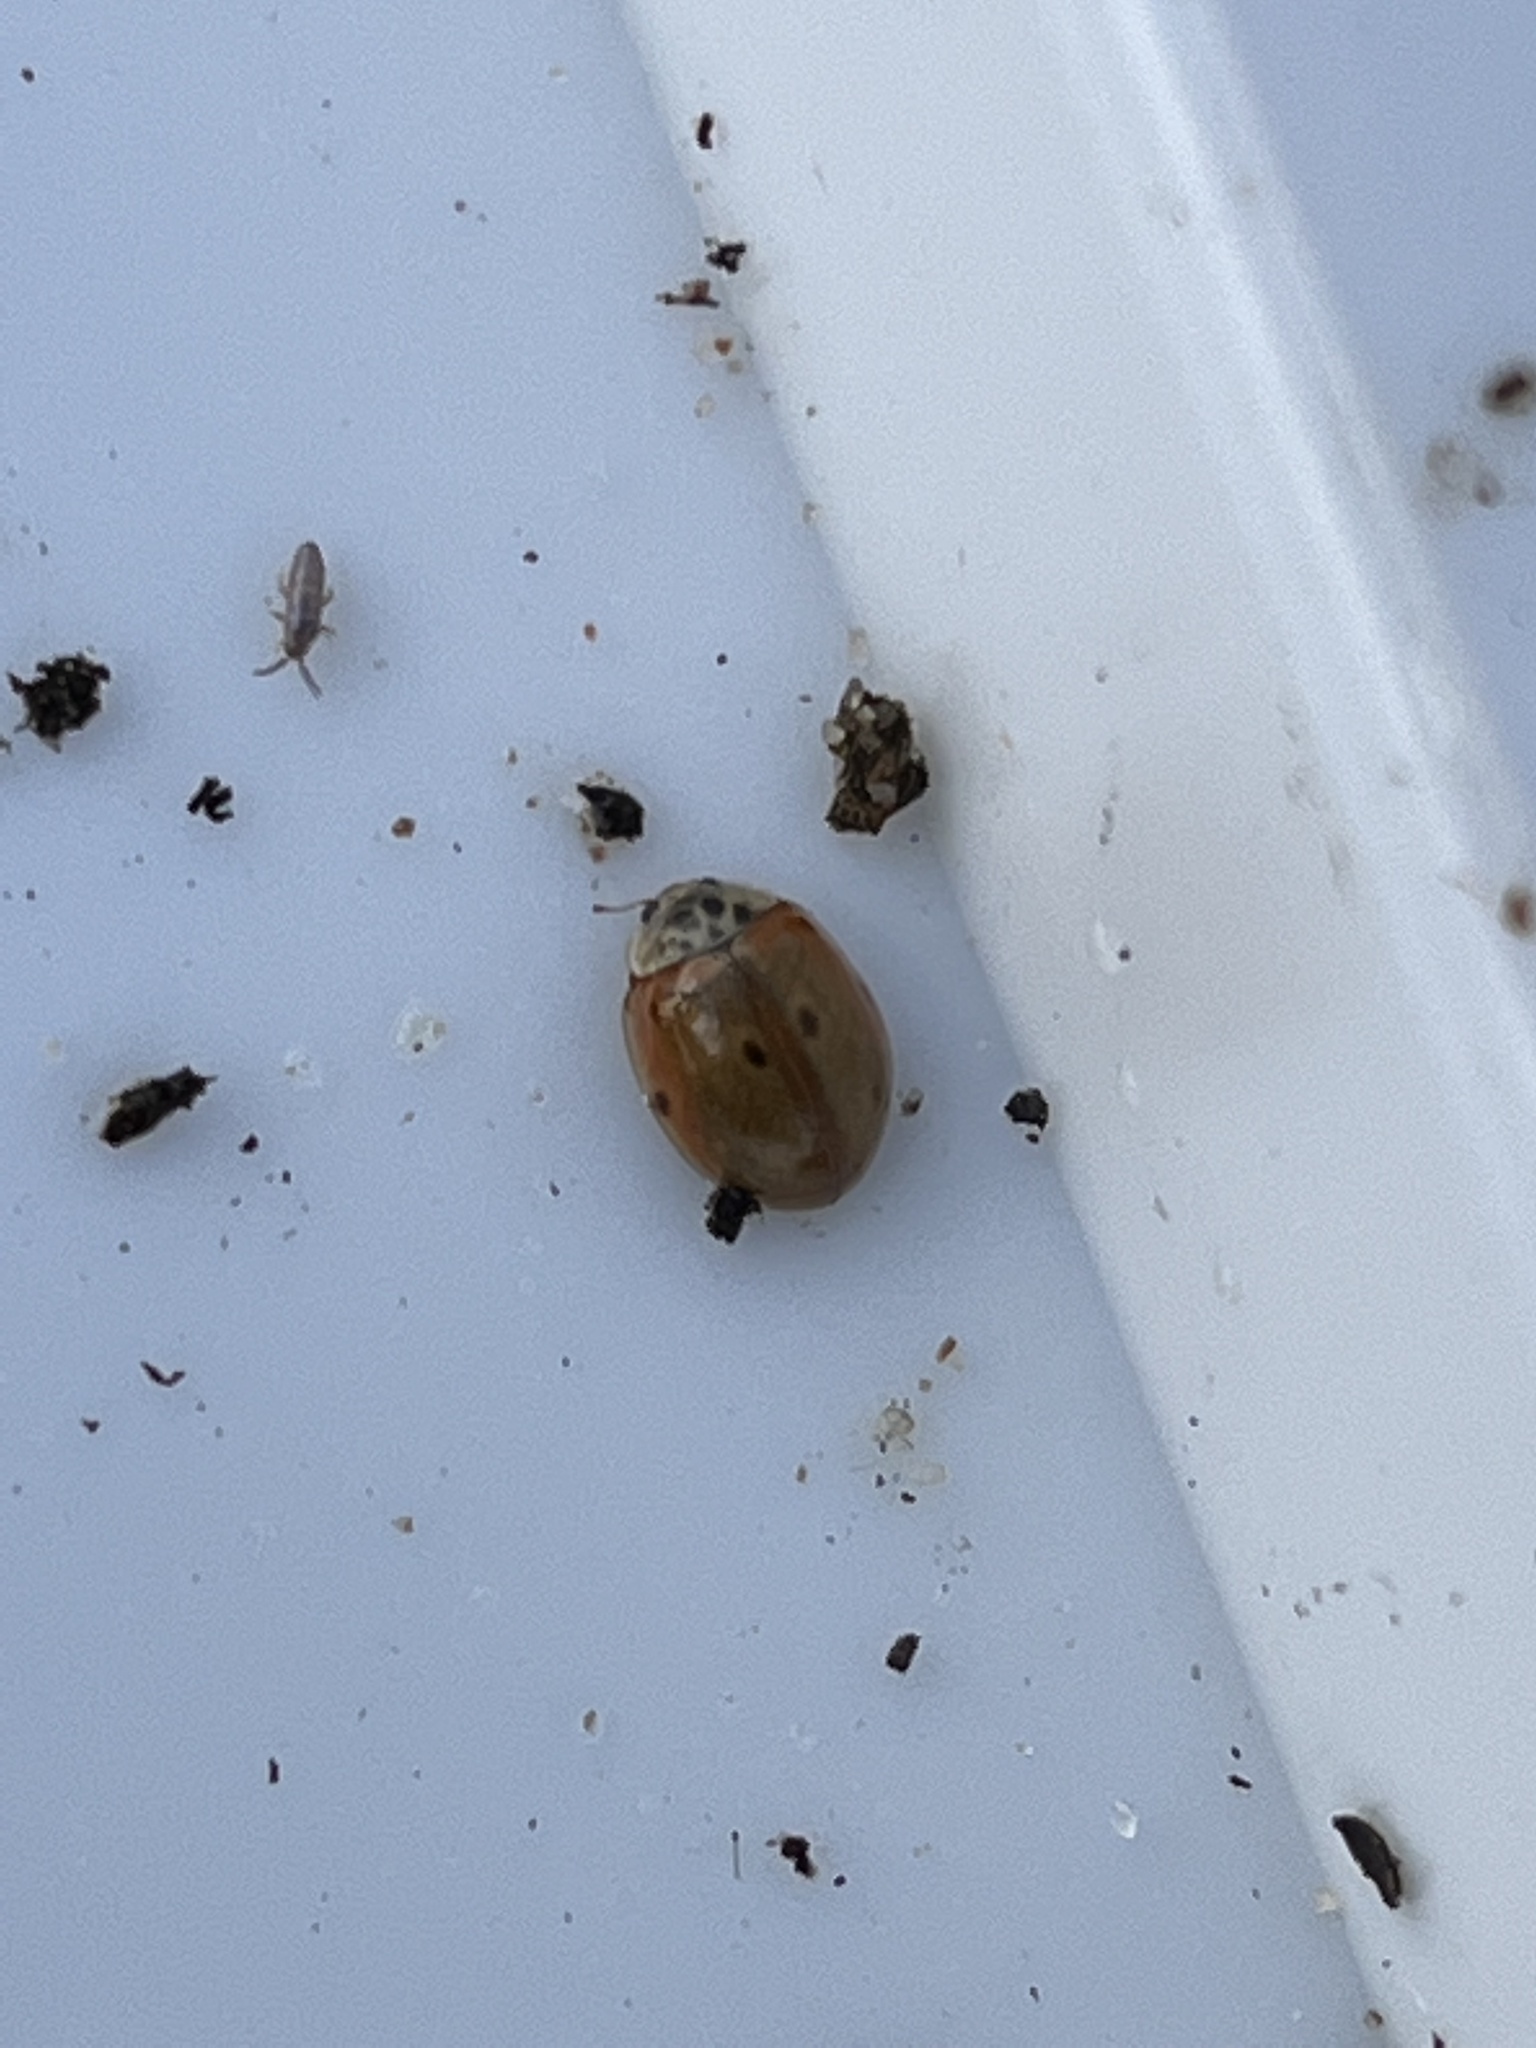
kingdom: Animalia
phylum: Arthropoda
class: Insecta
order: Coleoptera
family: Coccinellidae
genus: Adalia
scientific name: Adalia decempunctata
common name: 10-spot ladybird
